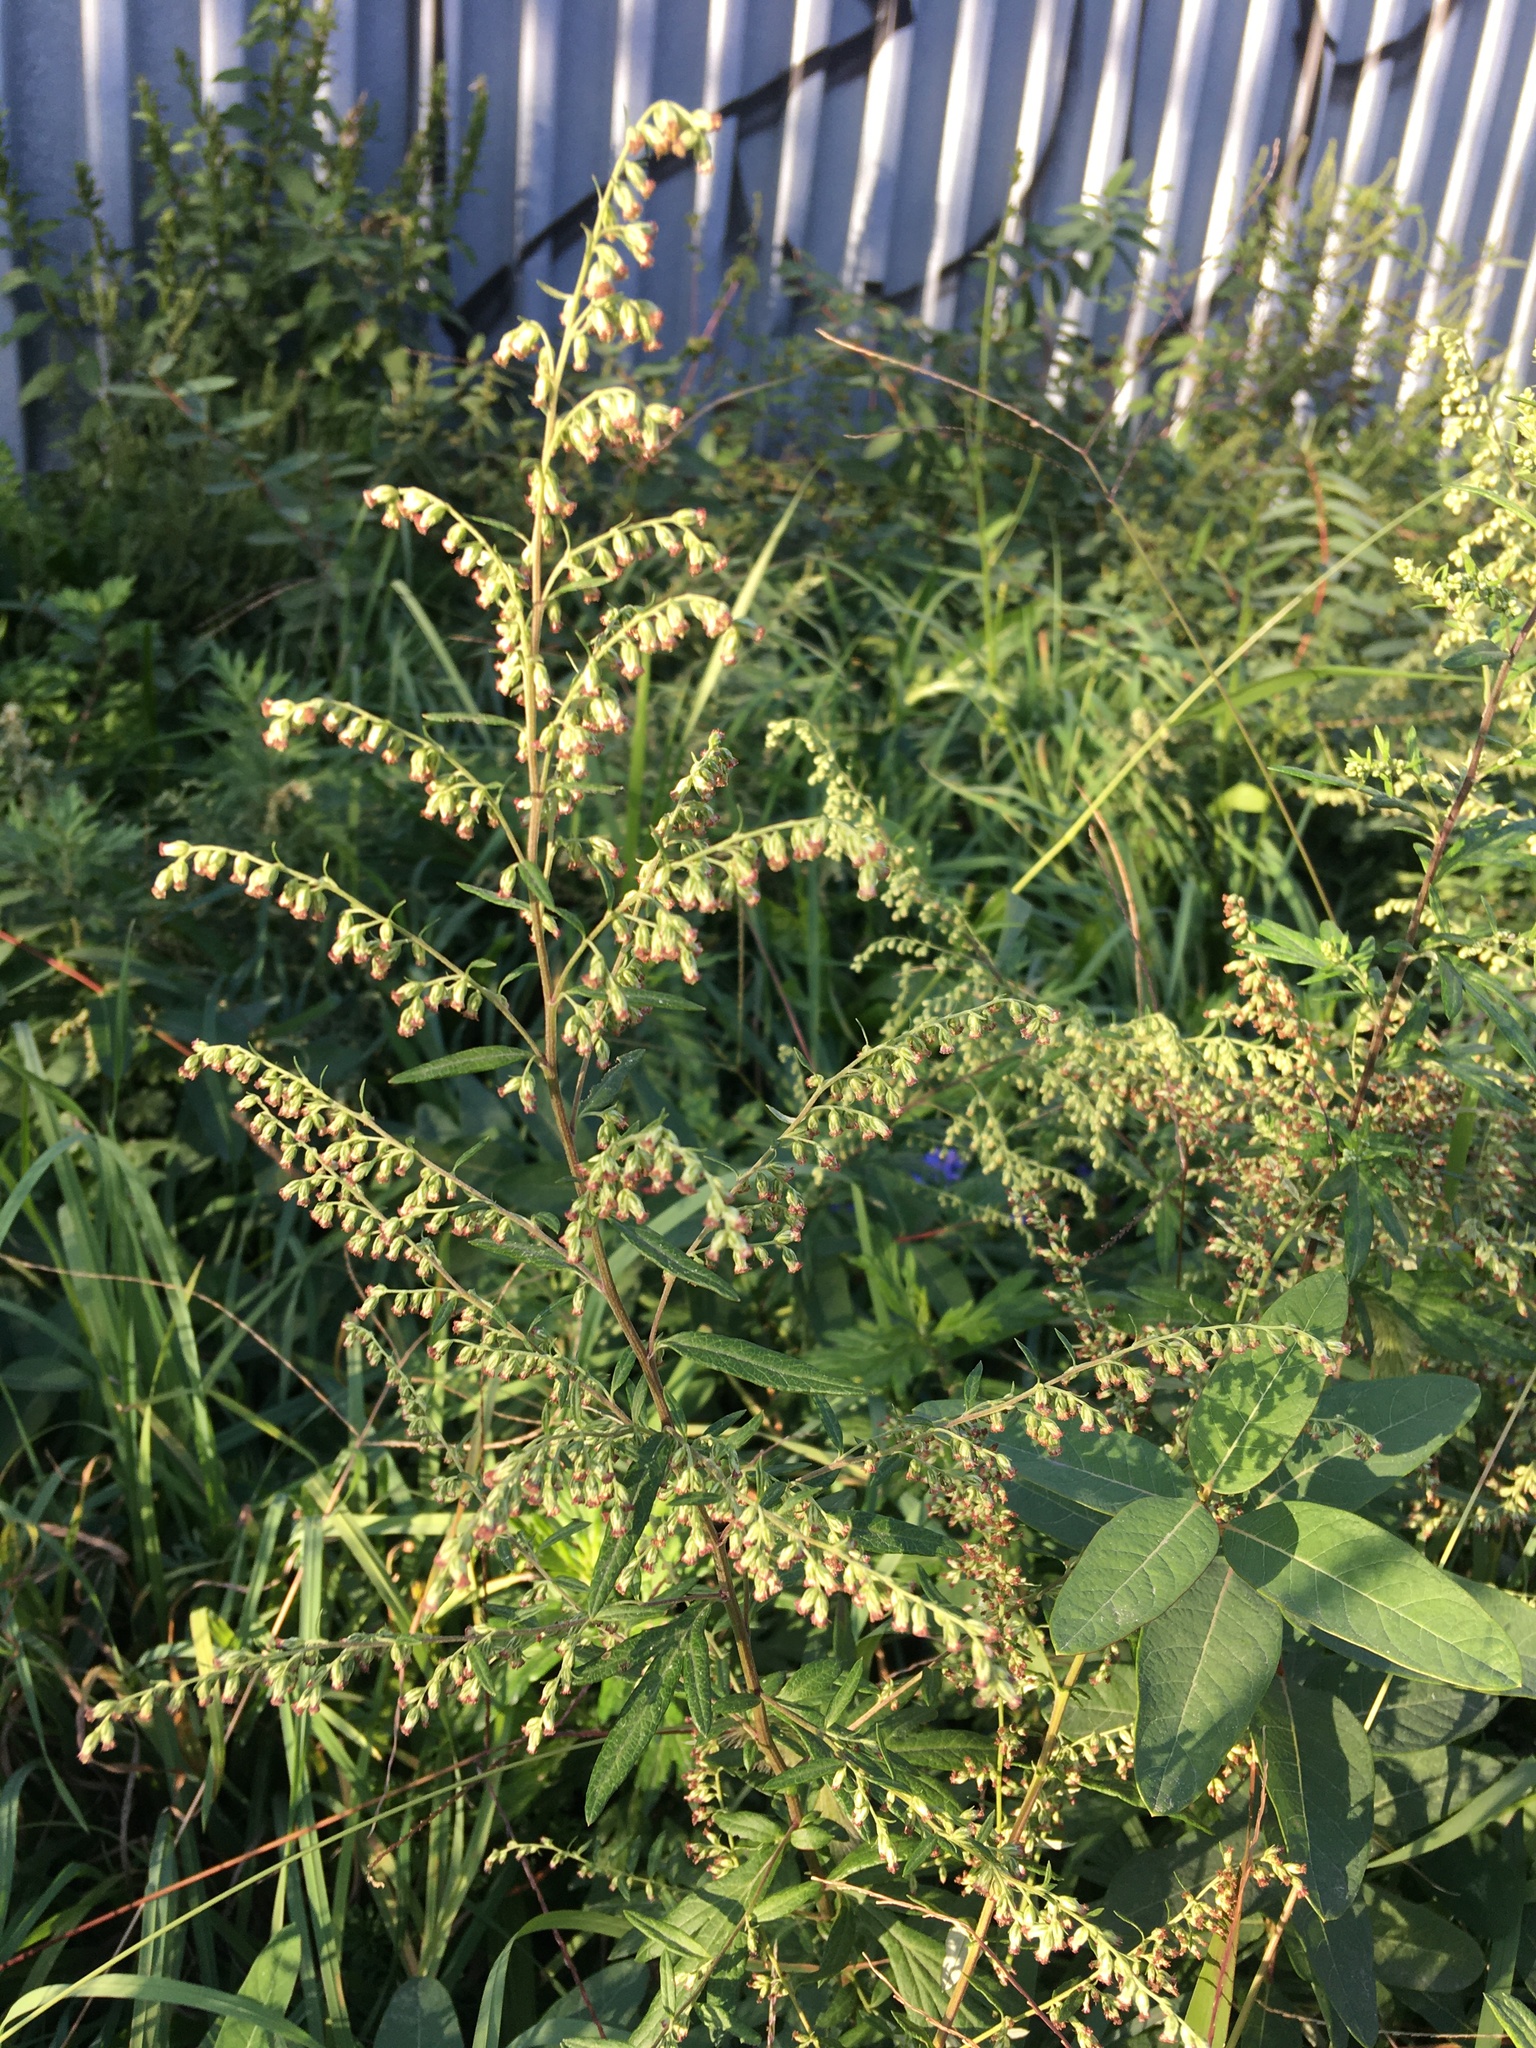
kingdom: Plantae
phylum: Tracheophyta
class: Magnoliopsida
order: Asterales
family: Asteraceae
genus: Artemisia
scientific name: Artemisia vulgaris
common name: Mugwort
